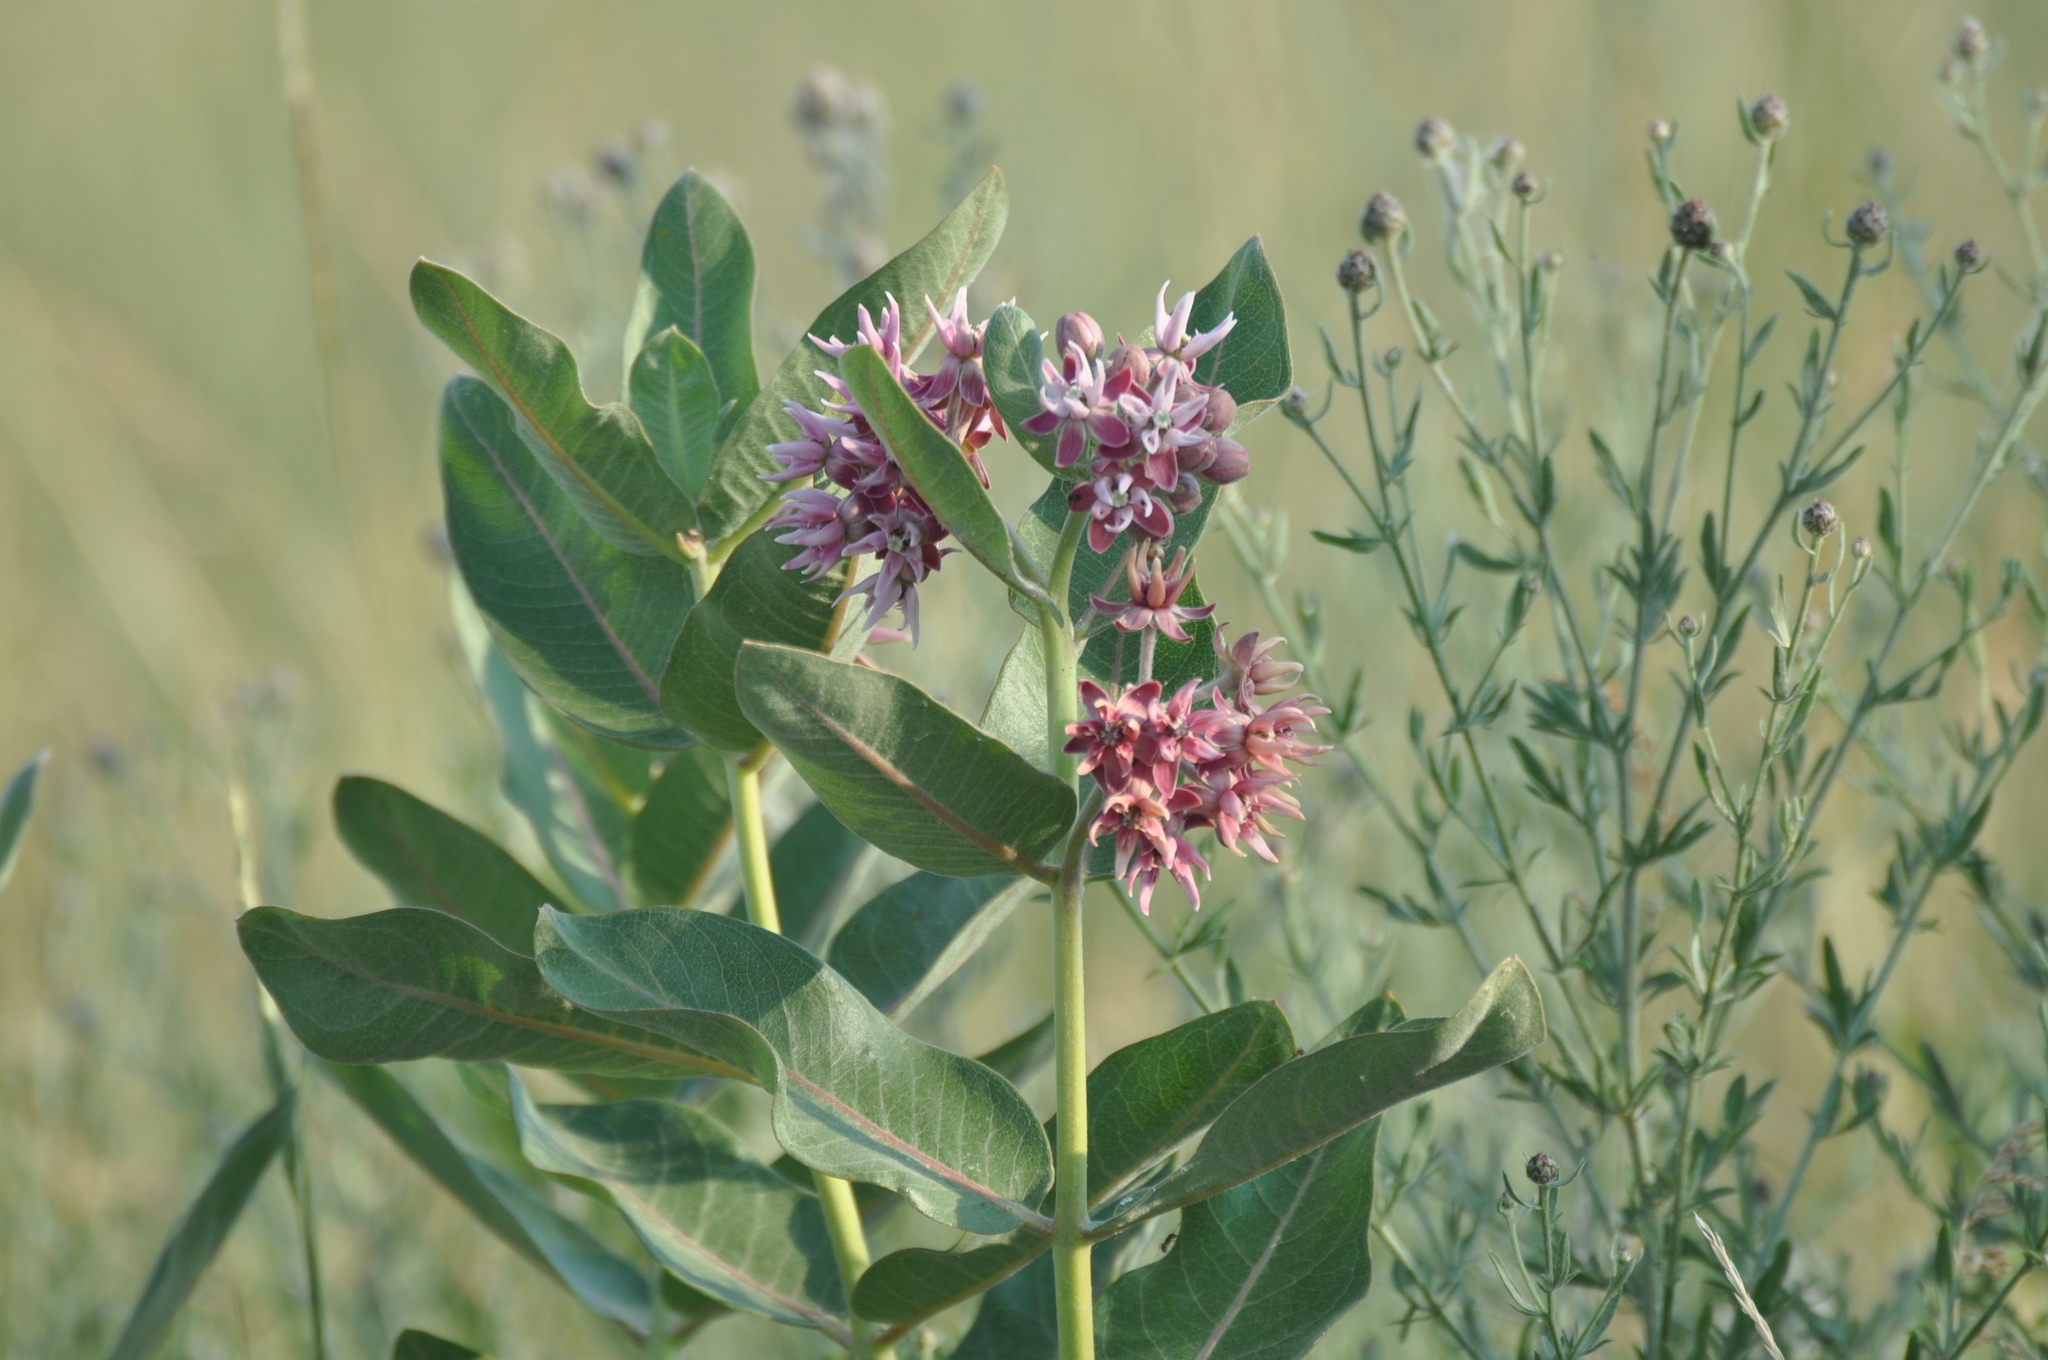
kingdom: Plantae
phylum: Tracheophyta
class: Magnoliopsida
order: Gentianales
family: Apocynaceae
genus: Asclepias
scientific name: Asclepias speciosa
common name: Showy milkweed
